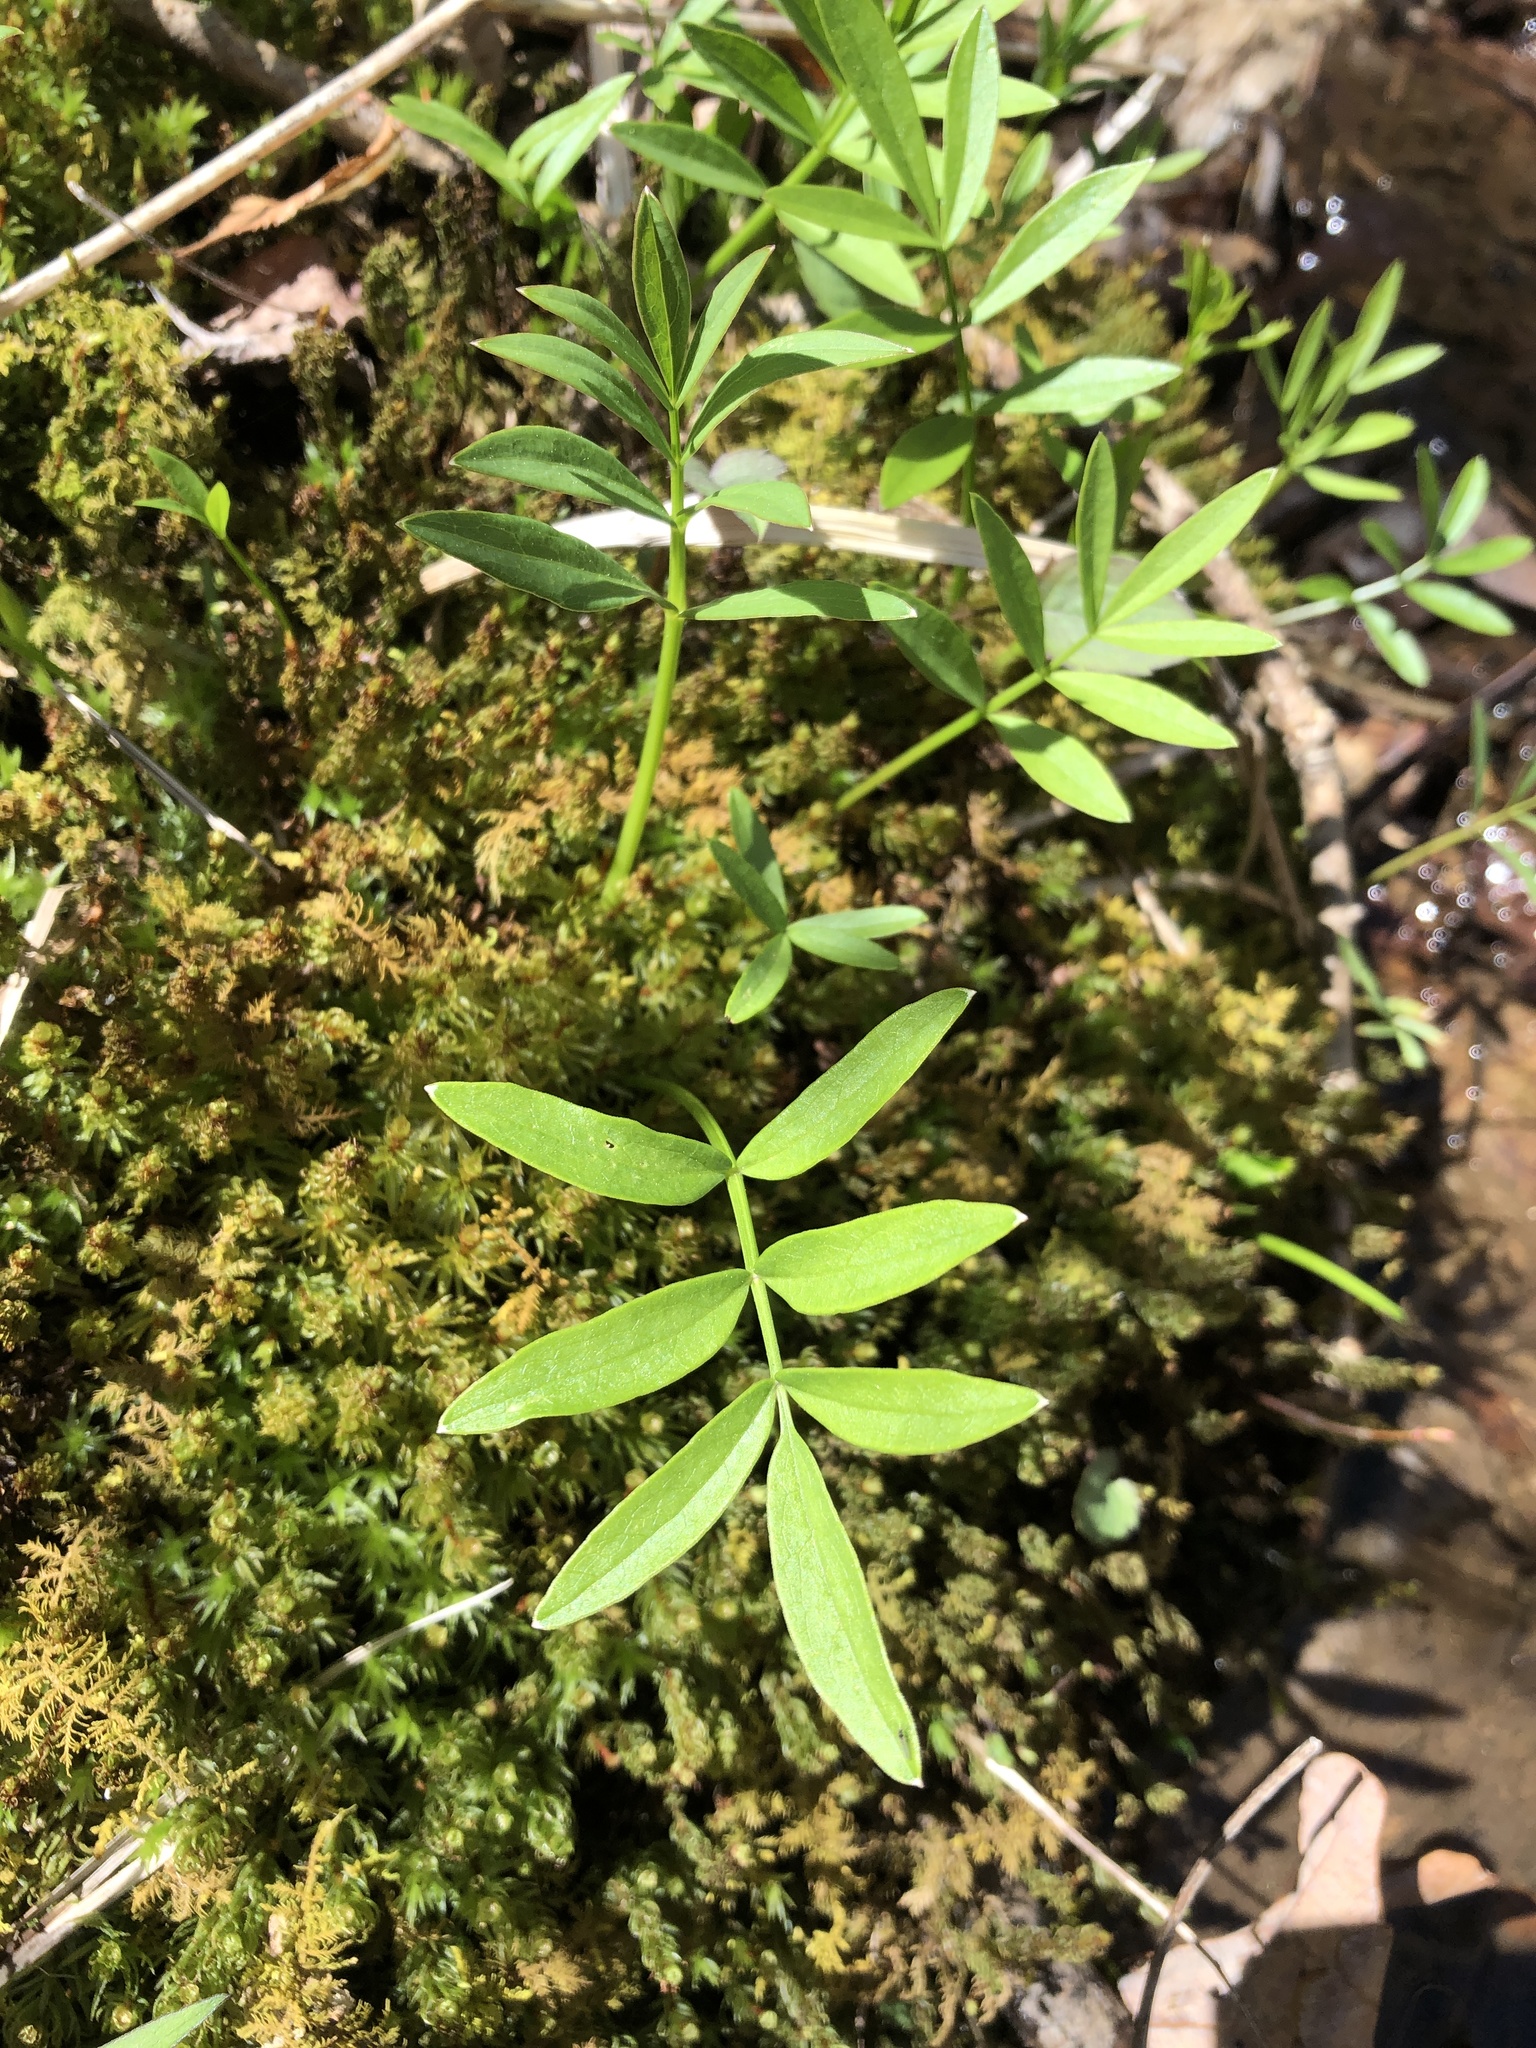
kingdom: Plantae
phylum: Tracheophyta
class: Magnoliopsida
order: Apiales
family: Apiaceae
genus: Oxypolis
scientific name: Oxypolis rigidior
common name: Cowbane
